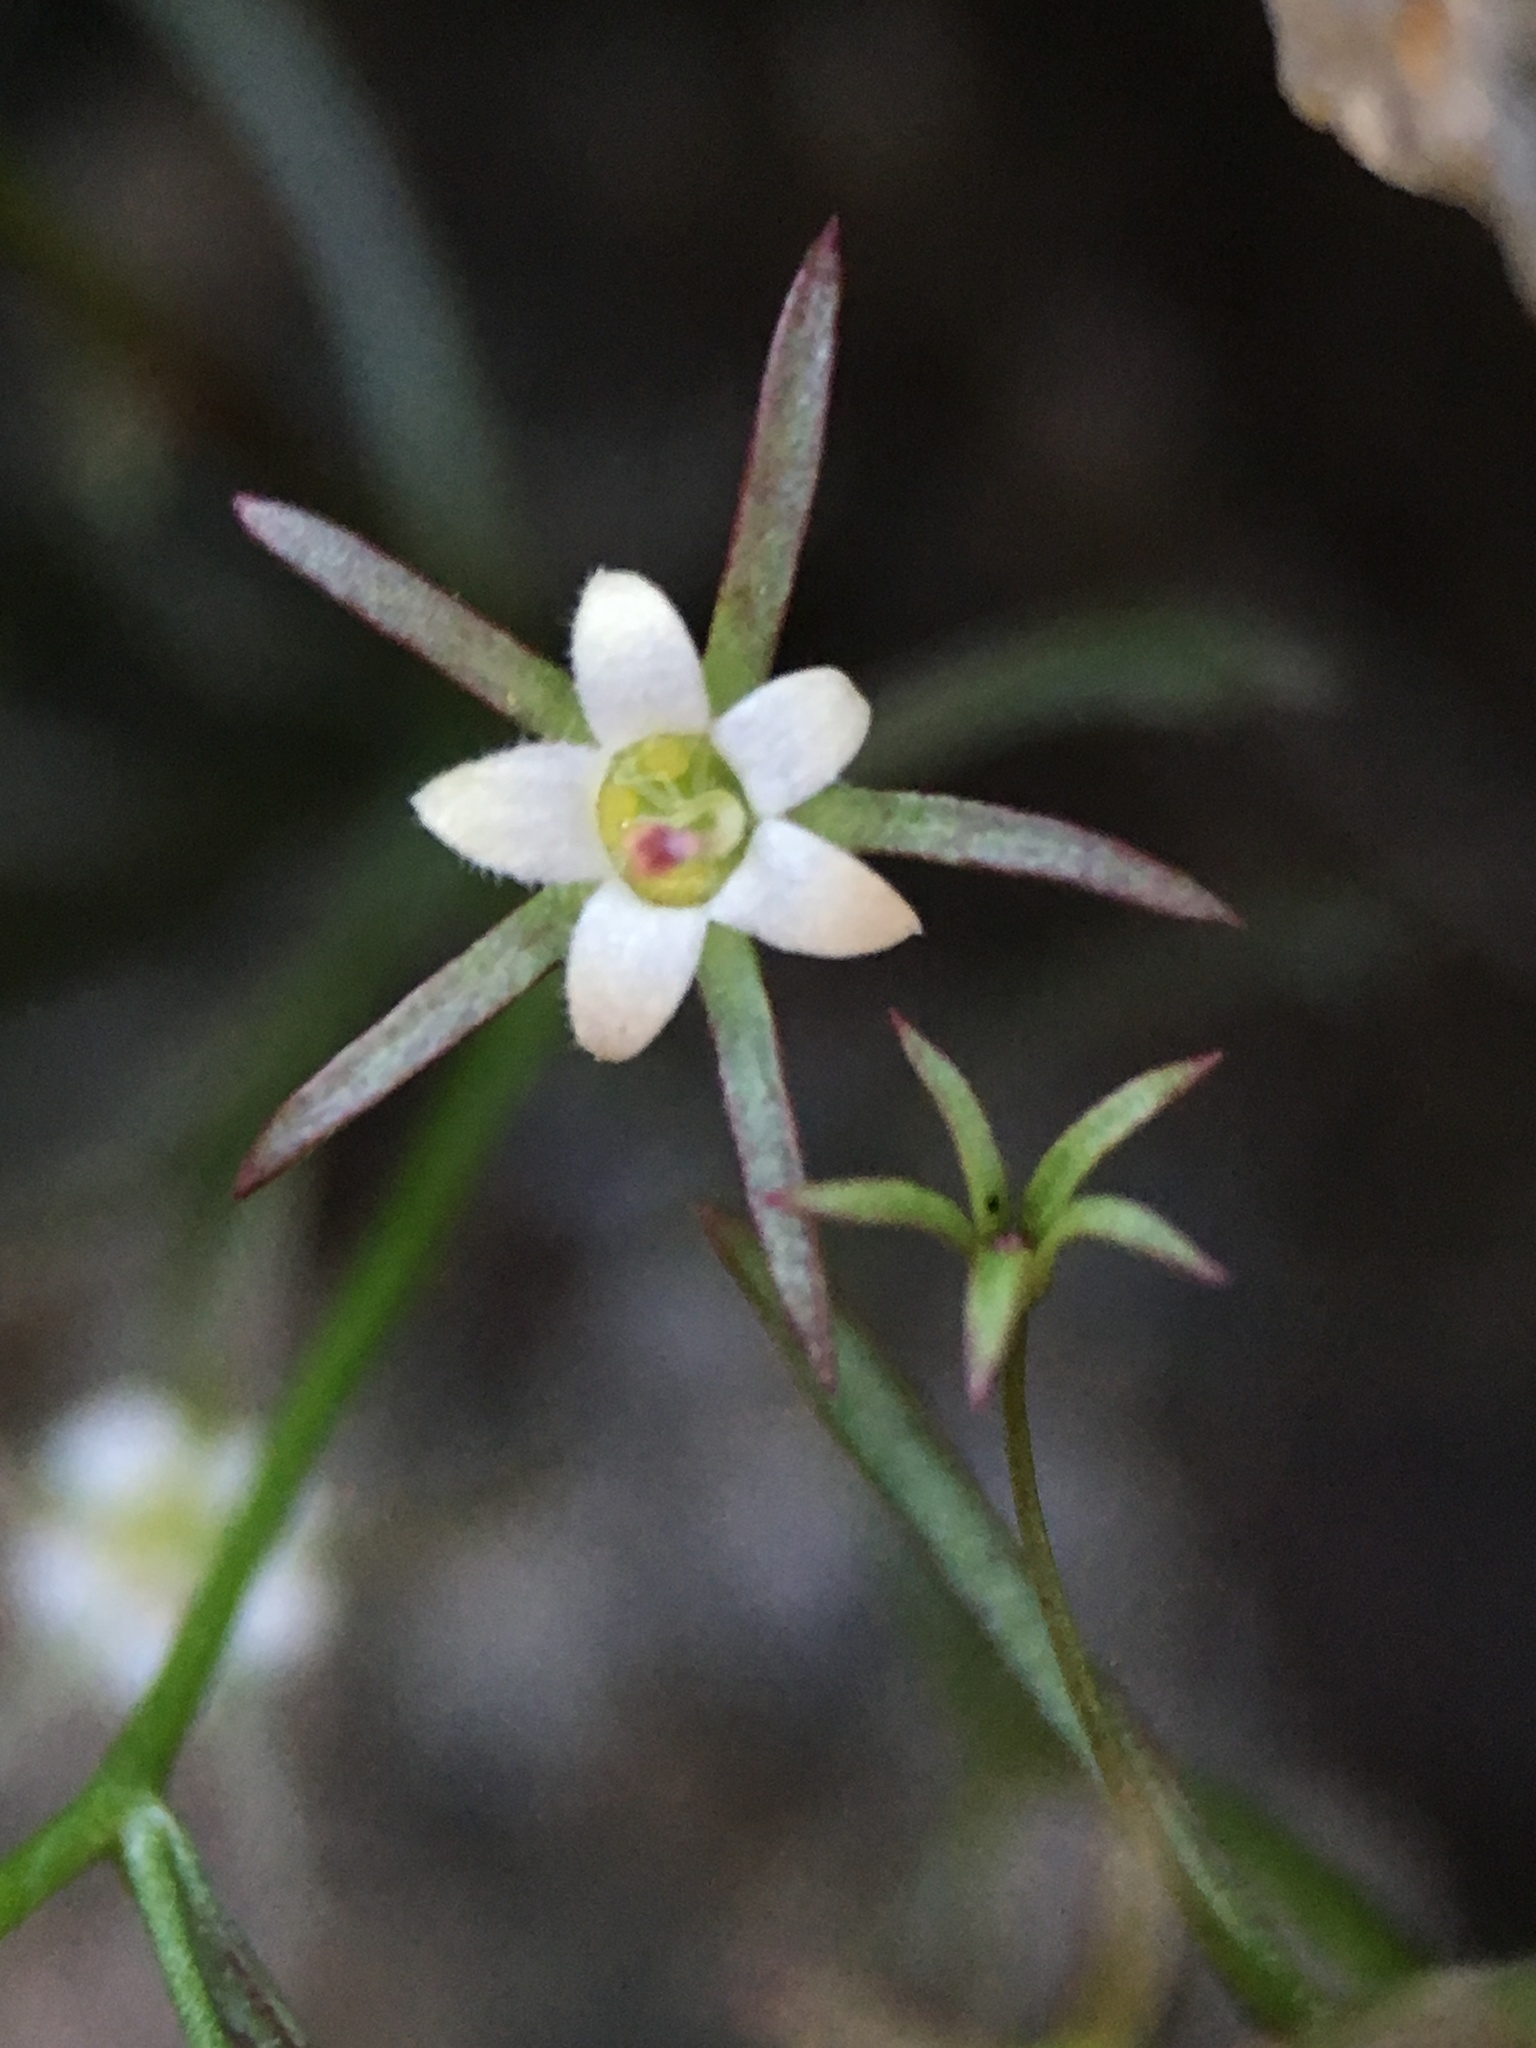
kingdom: Plantae
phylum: Tracheophyta
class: Magnoliopsida
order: Asterales
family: Campanulaceae
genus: Nemacladus
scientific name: Nemacladus glanduliferus
